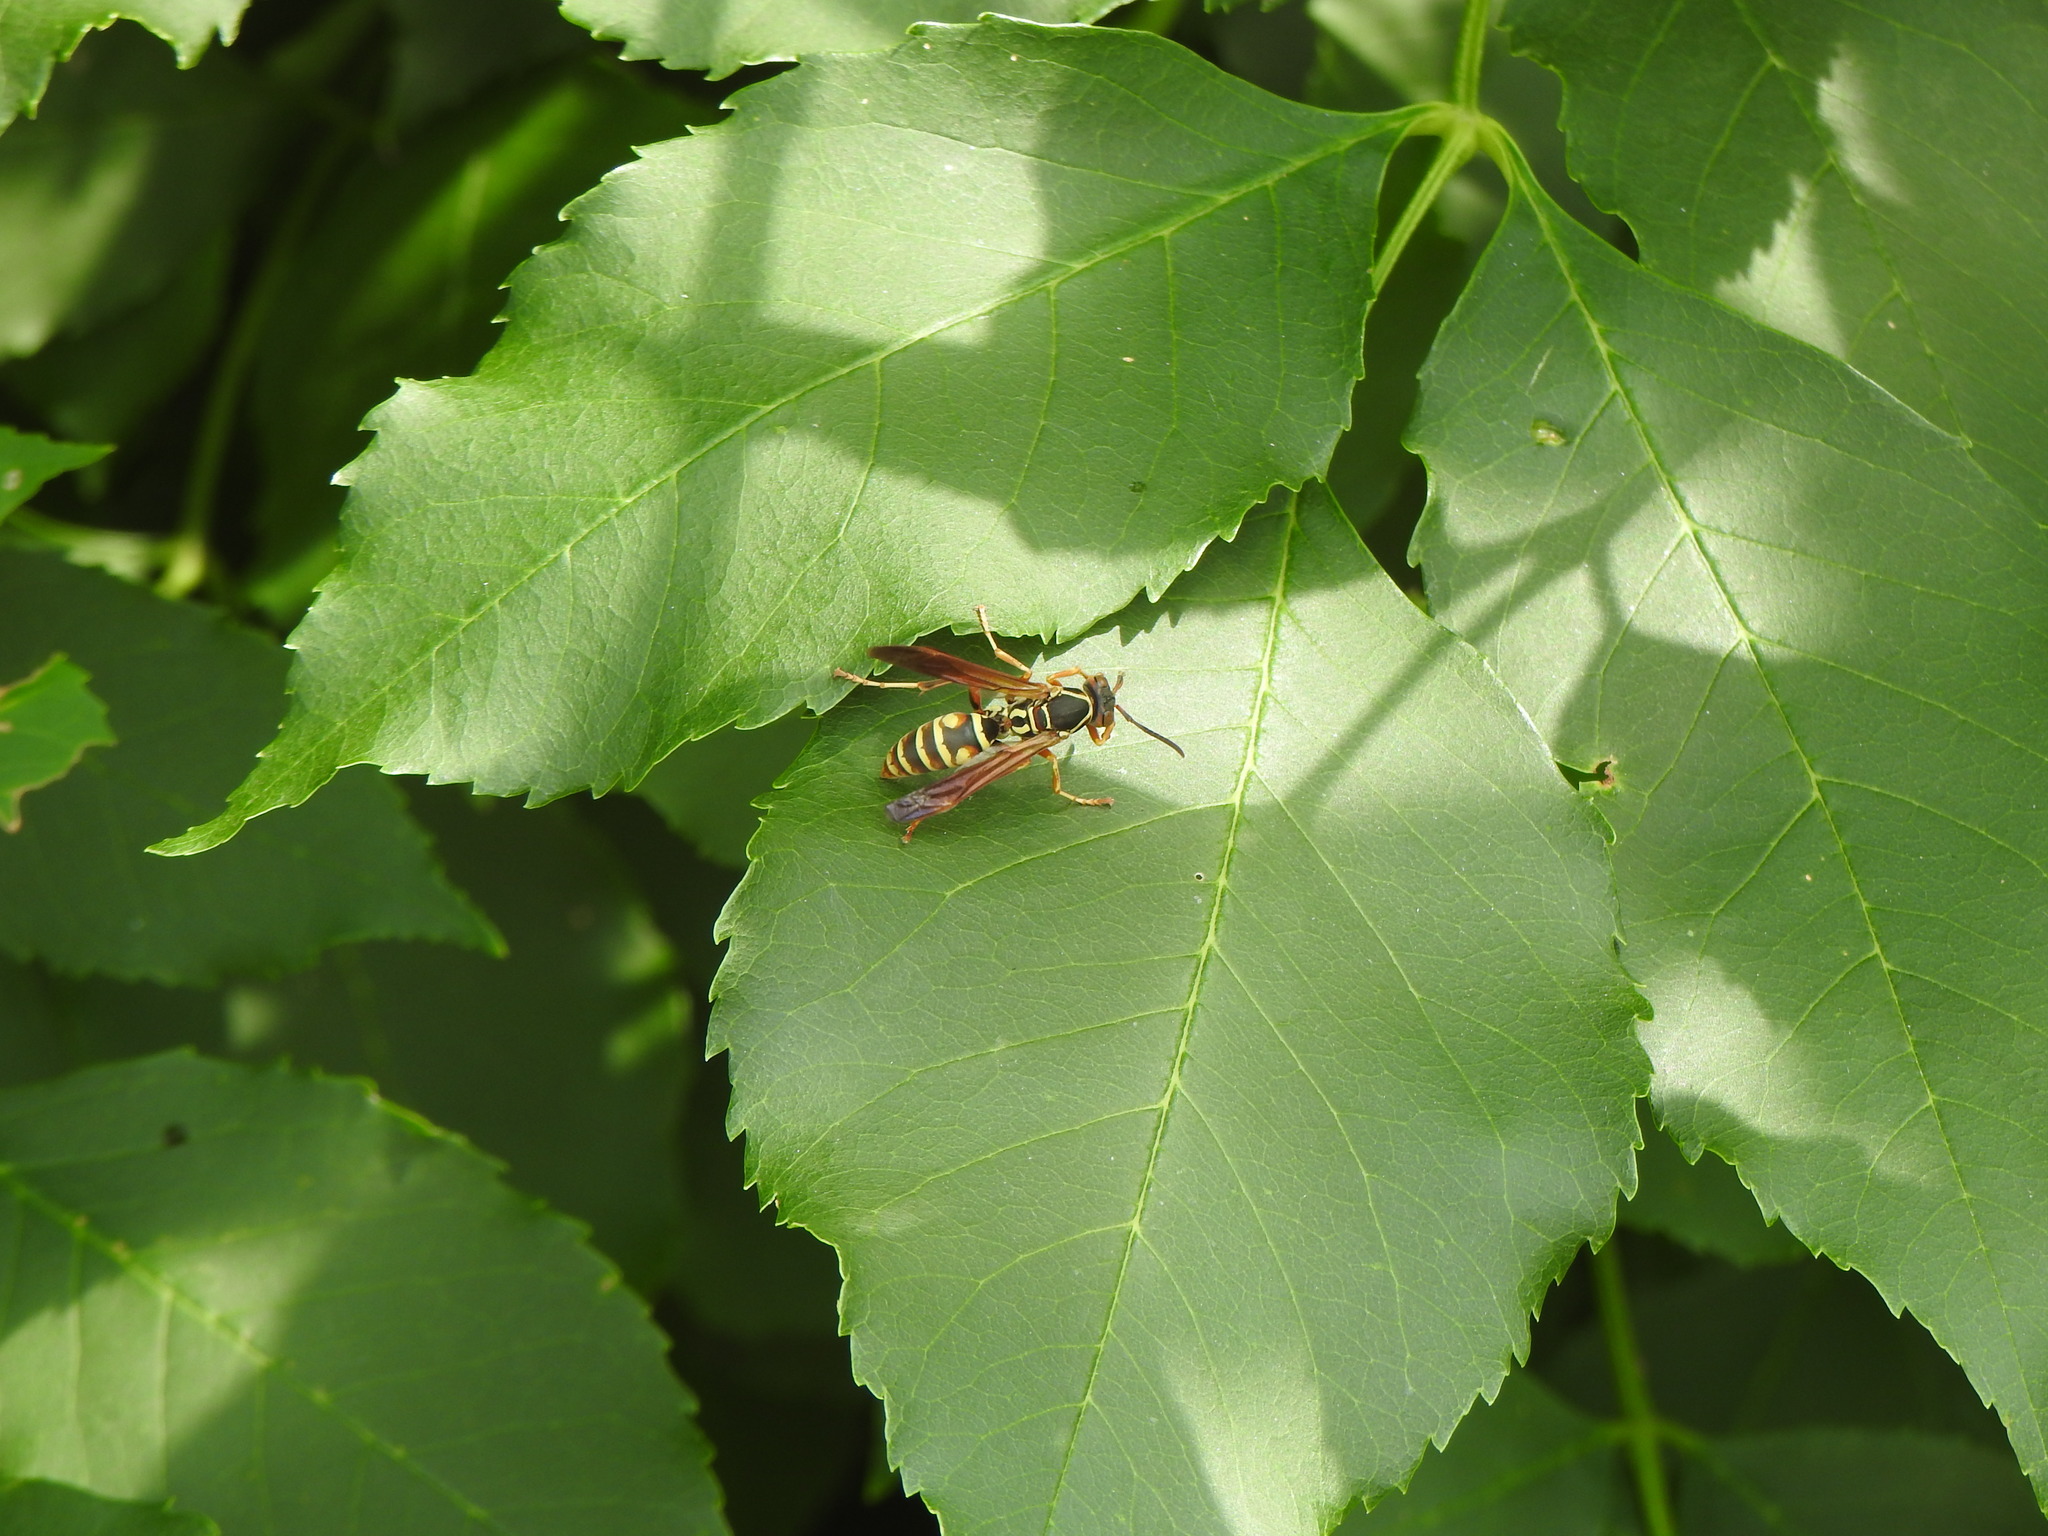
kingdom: Animalia
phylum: Arthropoda
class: Insecta
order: Hymenoptera
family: Eumenidae
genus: Polistes
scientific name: Polistes fuscatus
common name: Dark paper wasp
